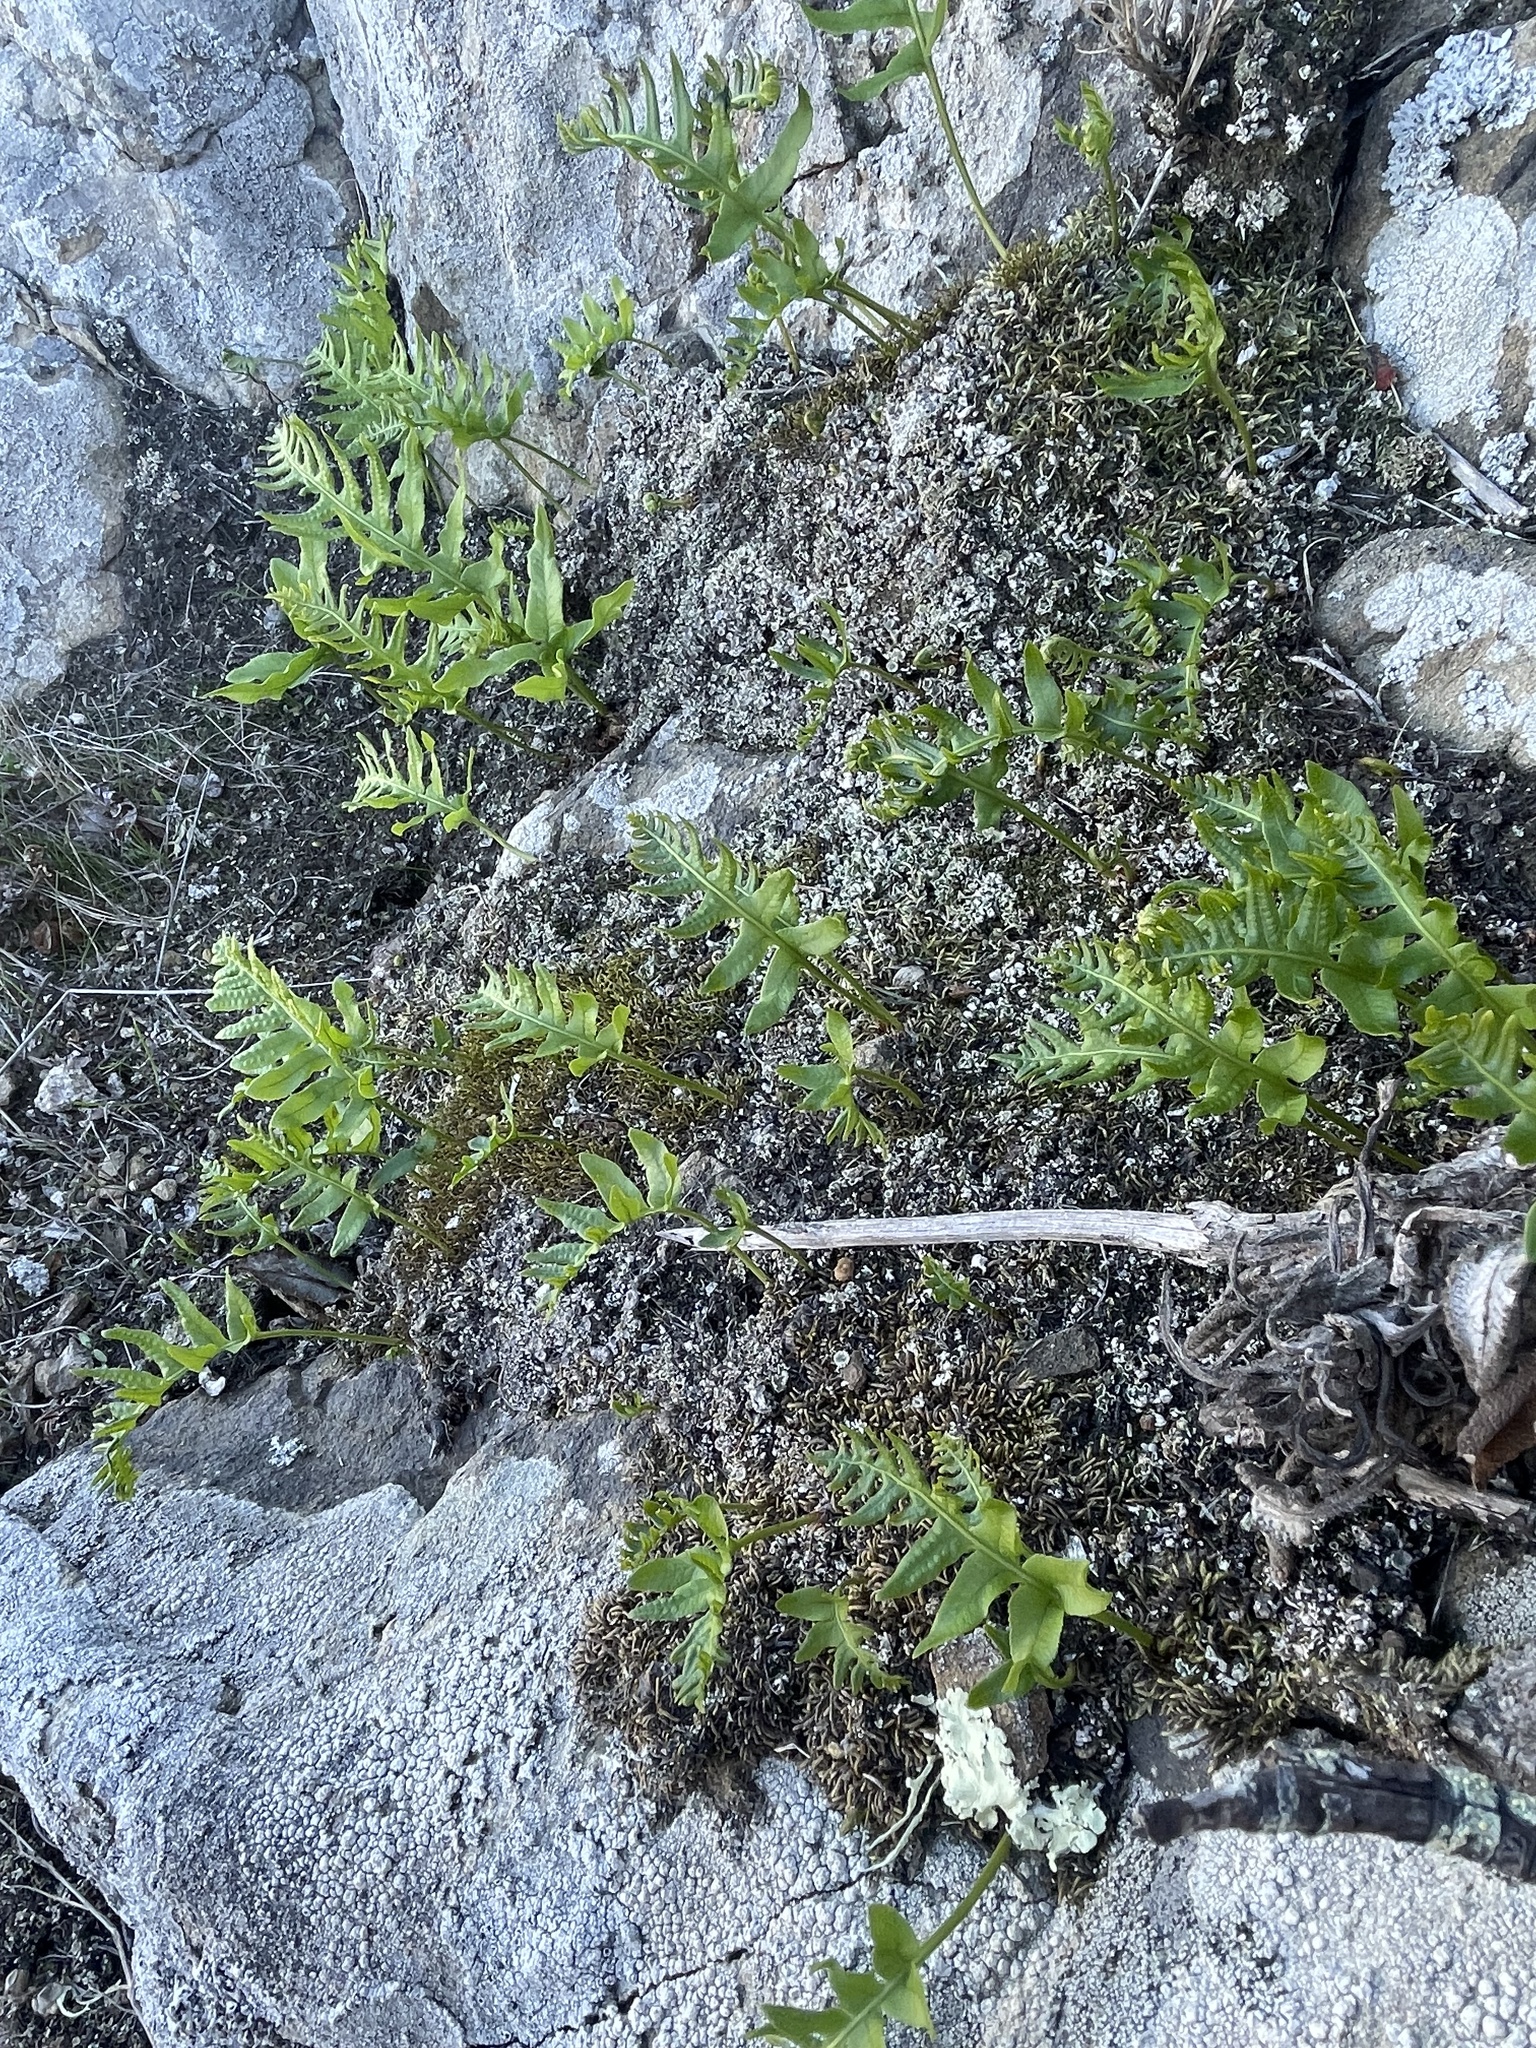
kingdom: Plantae
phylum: Tracheophyta
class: Polypodiopsida
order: Polypodiales
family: Polypodiaceae
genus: Polypodium
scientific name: Polypodium californicum
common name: California polypody
